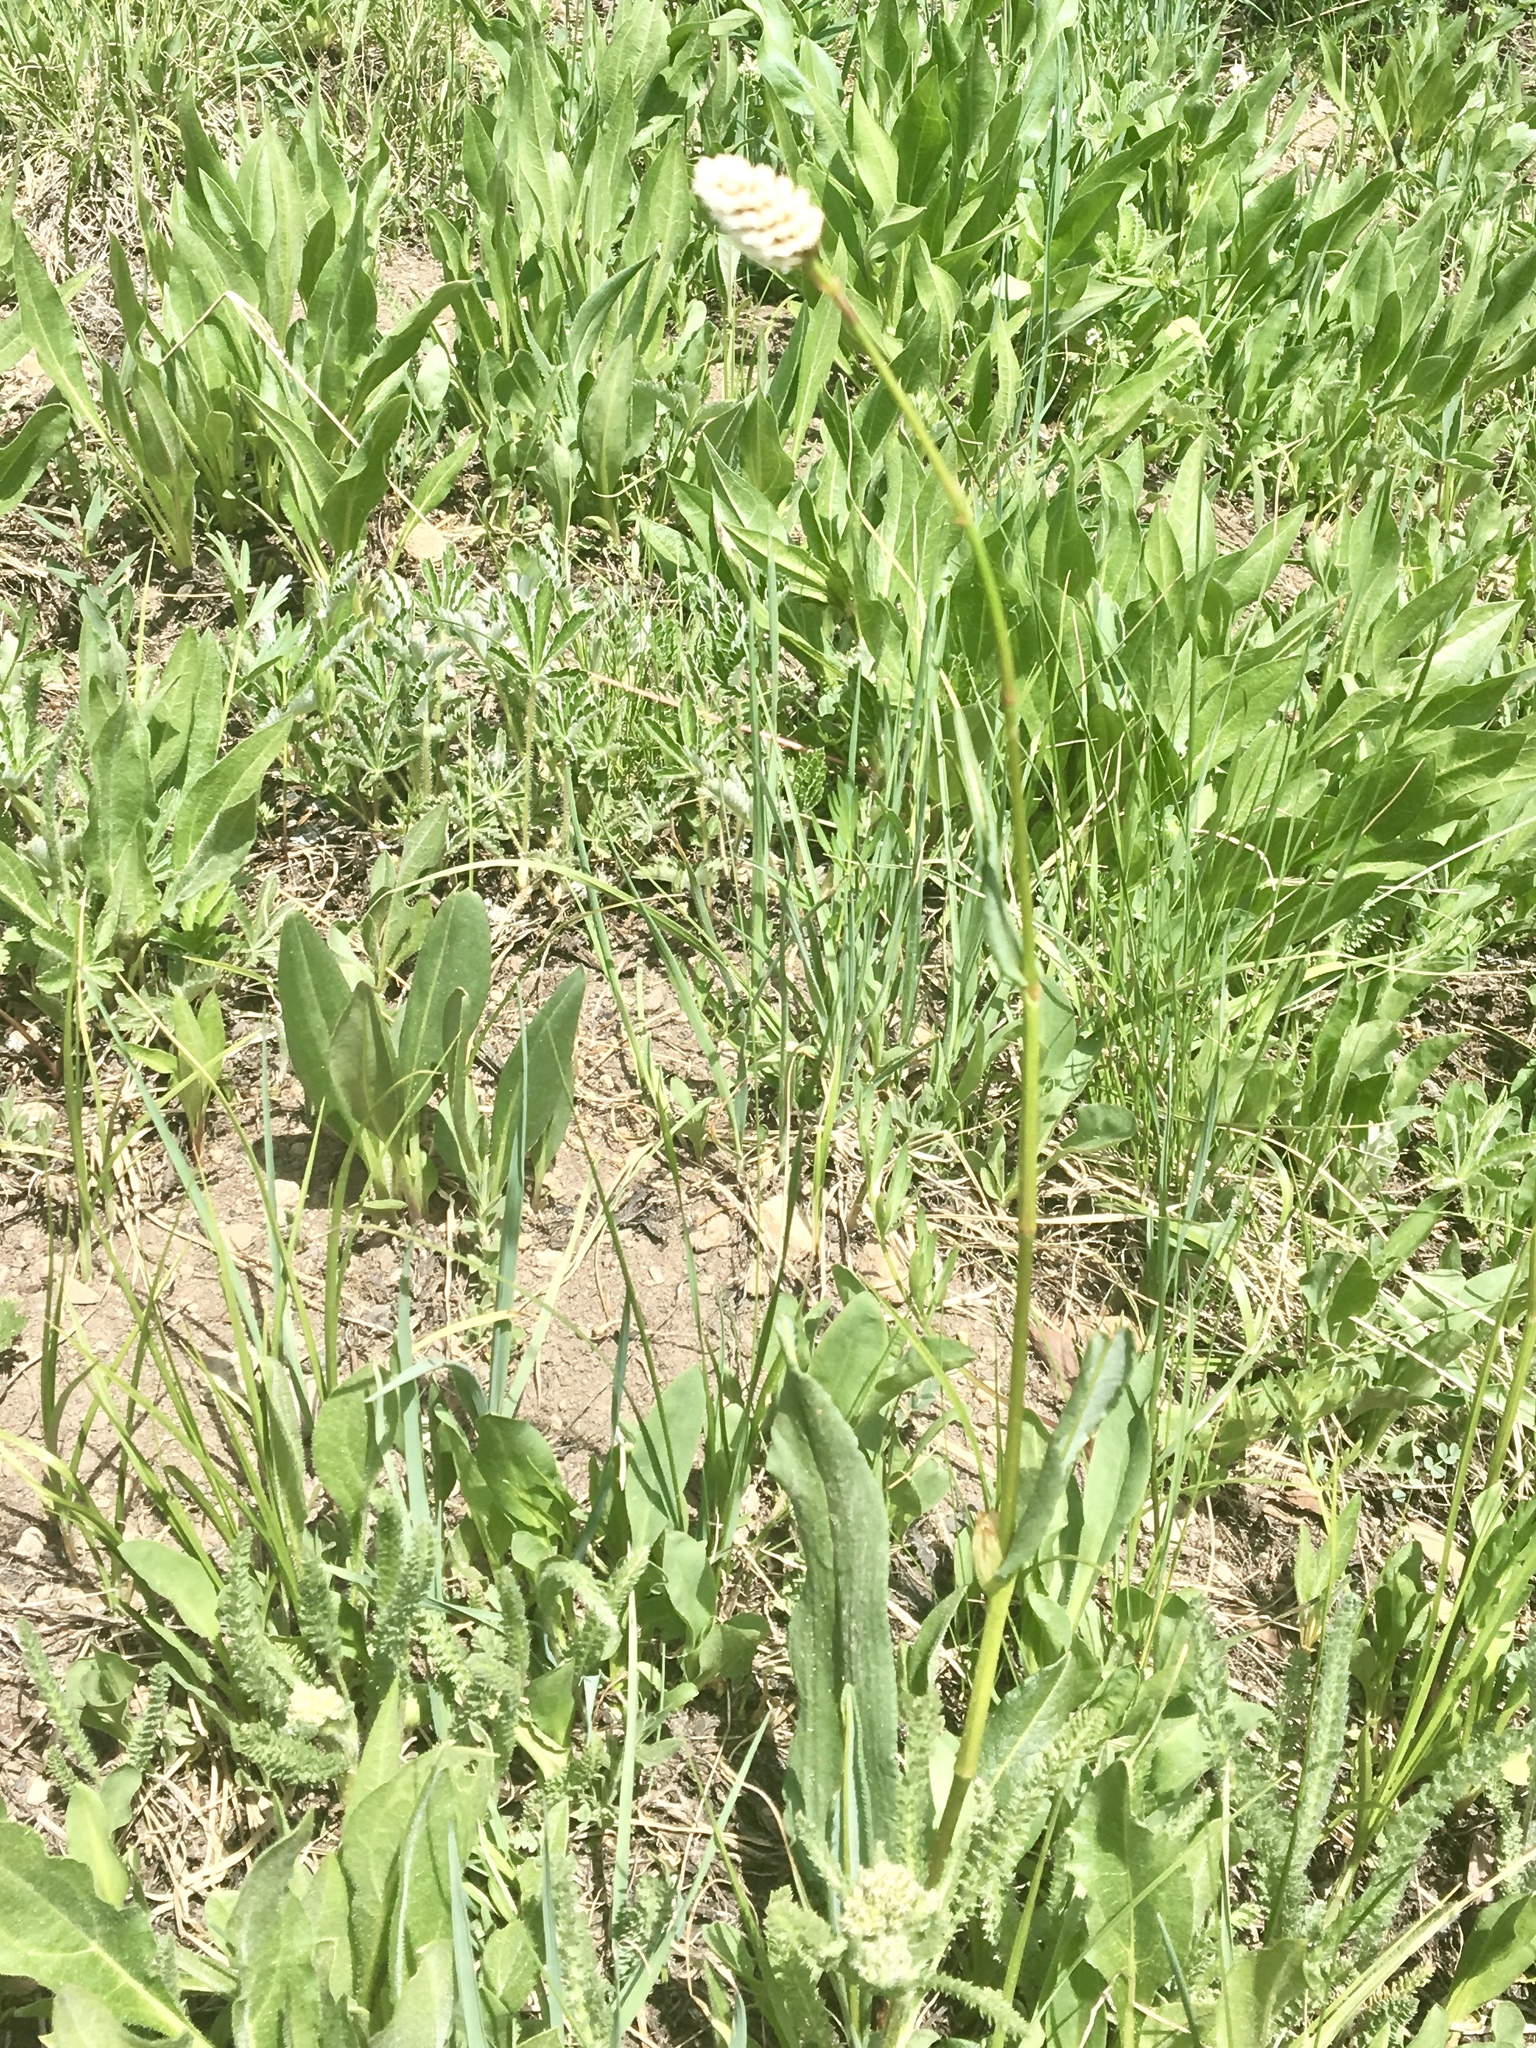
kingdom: Plantae
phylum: Tracheophyta
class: Magnoliopsida
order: Caryophyllales
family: Polygonaceae
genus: Bistorta
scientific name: Bistorta bistortoides
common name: American bistort
